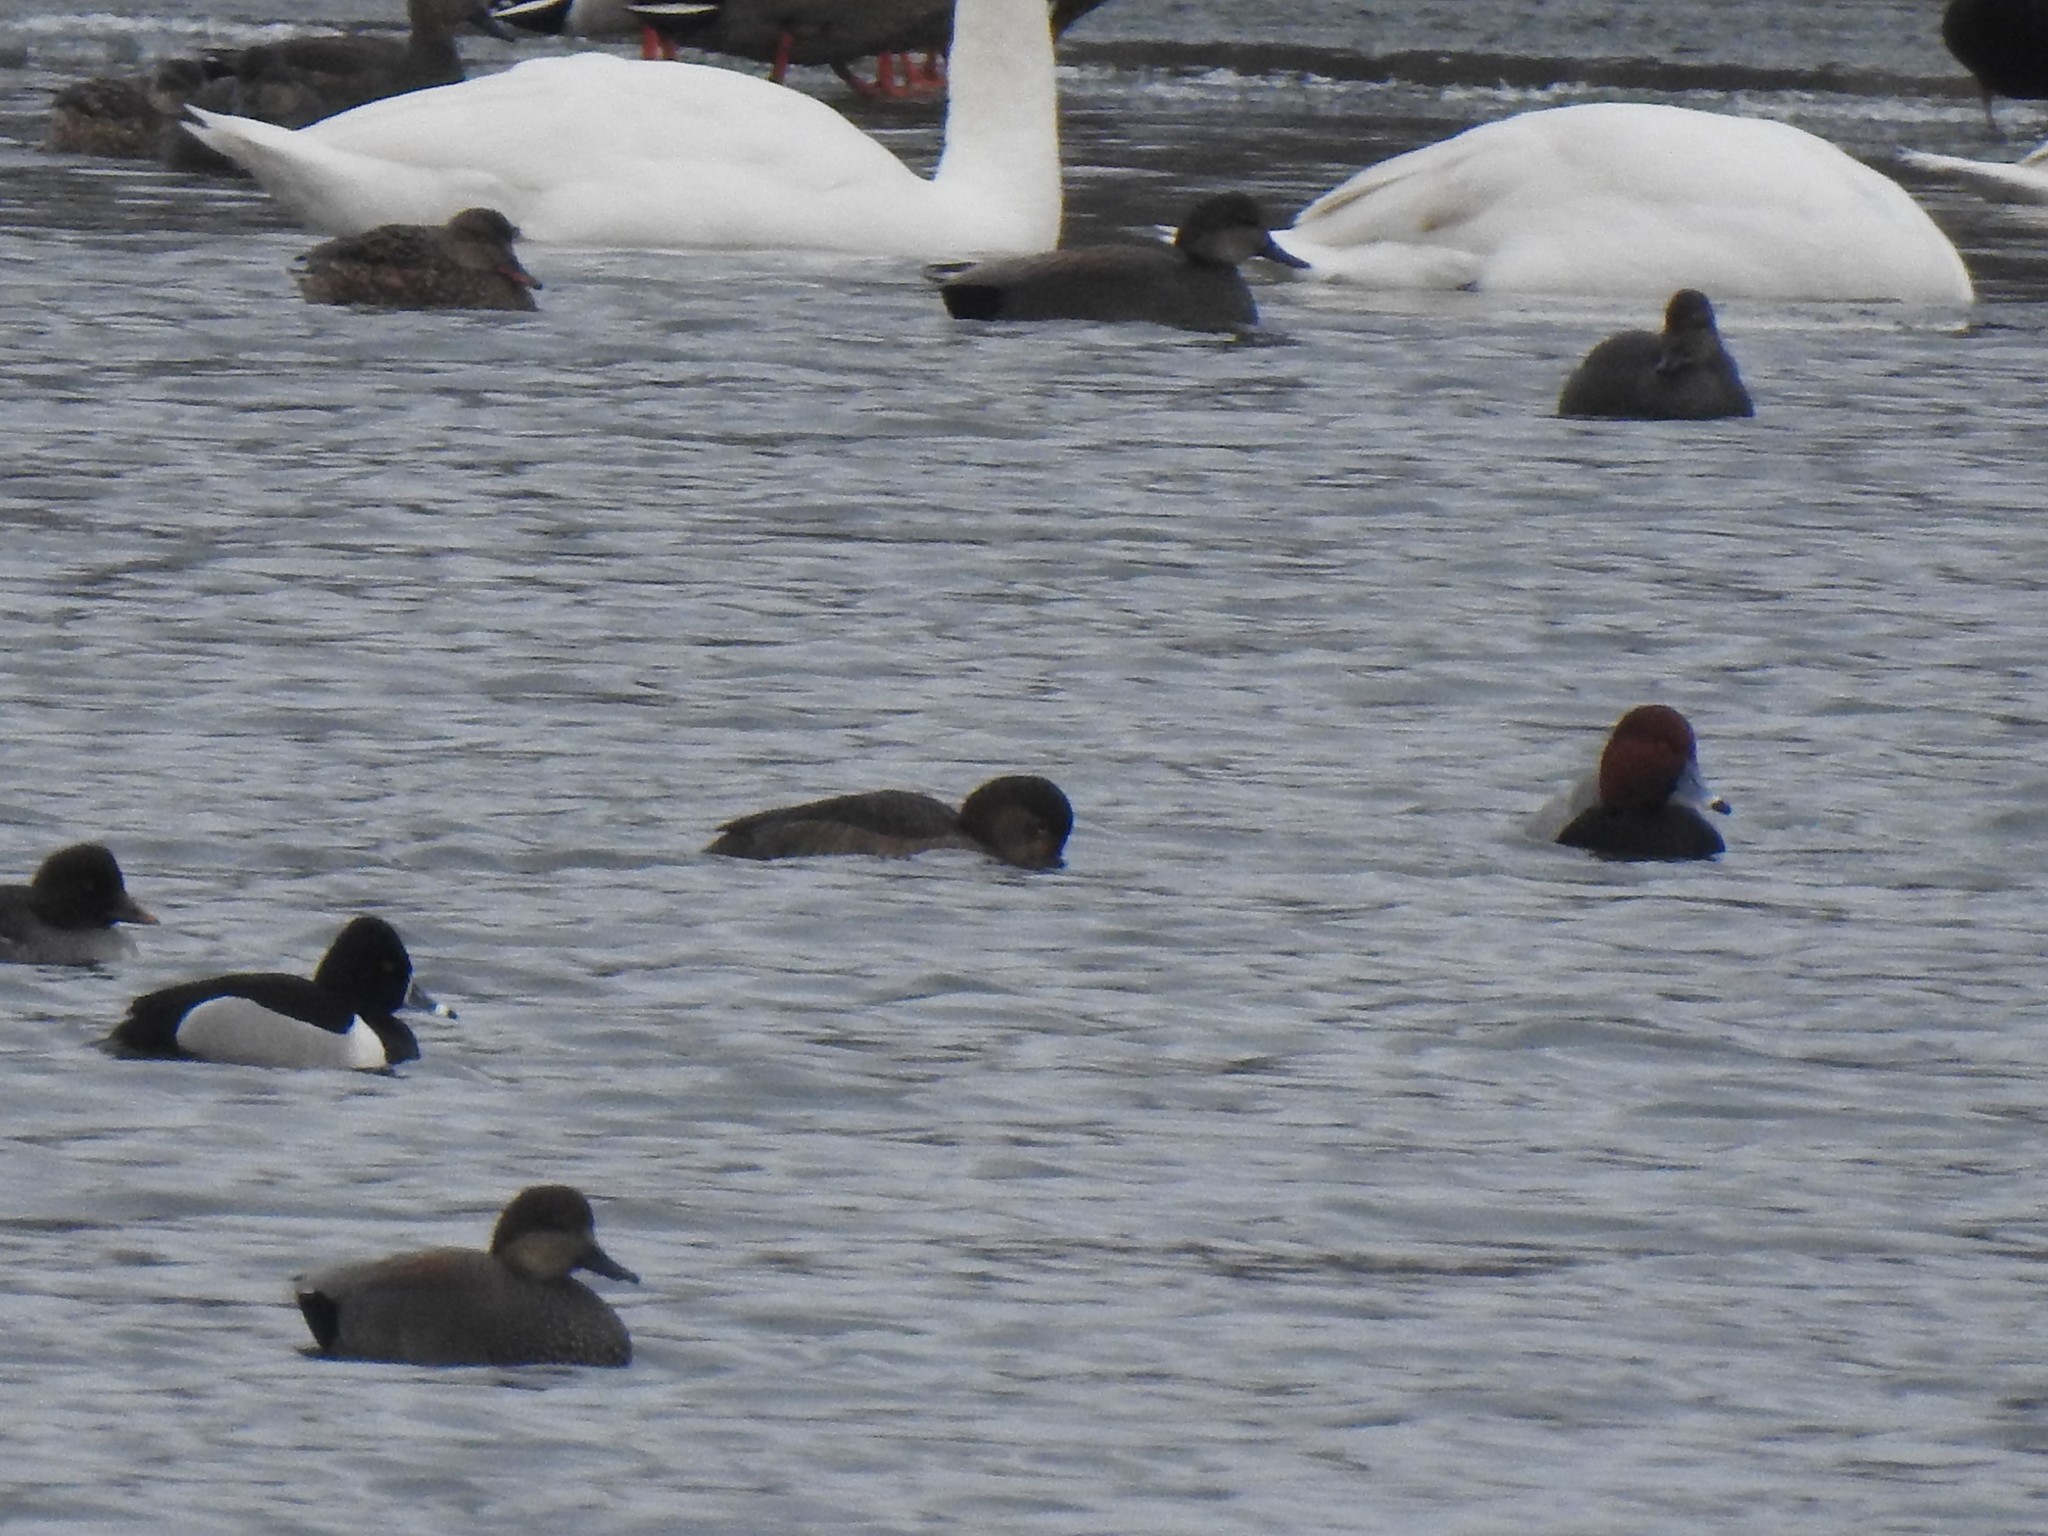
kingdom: Animalia
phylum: Chordata
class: Aves
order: Anseriformes
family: Anatidae
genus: Mareca
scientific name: Mareca strepera
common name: Gadwall
